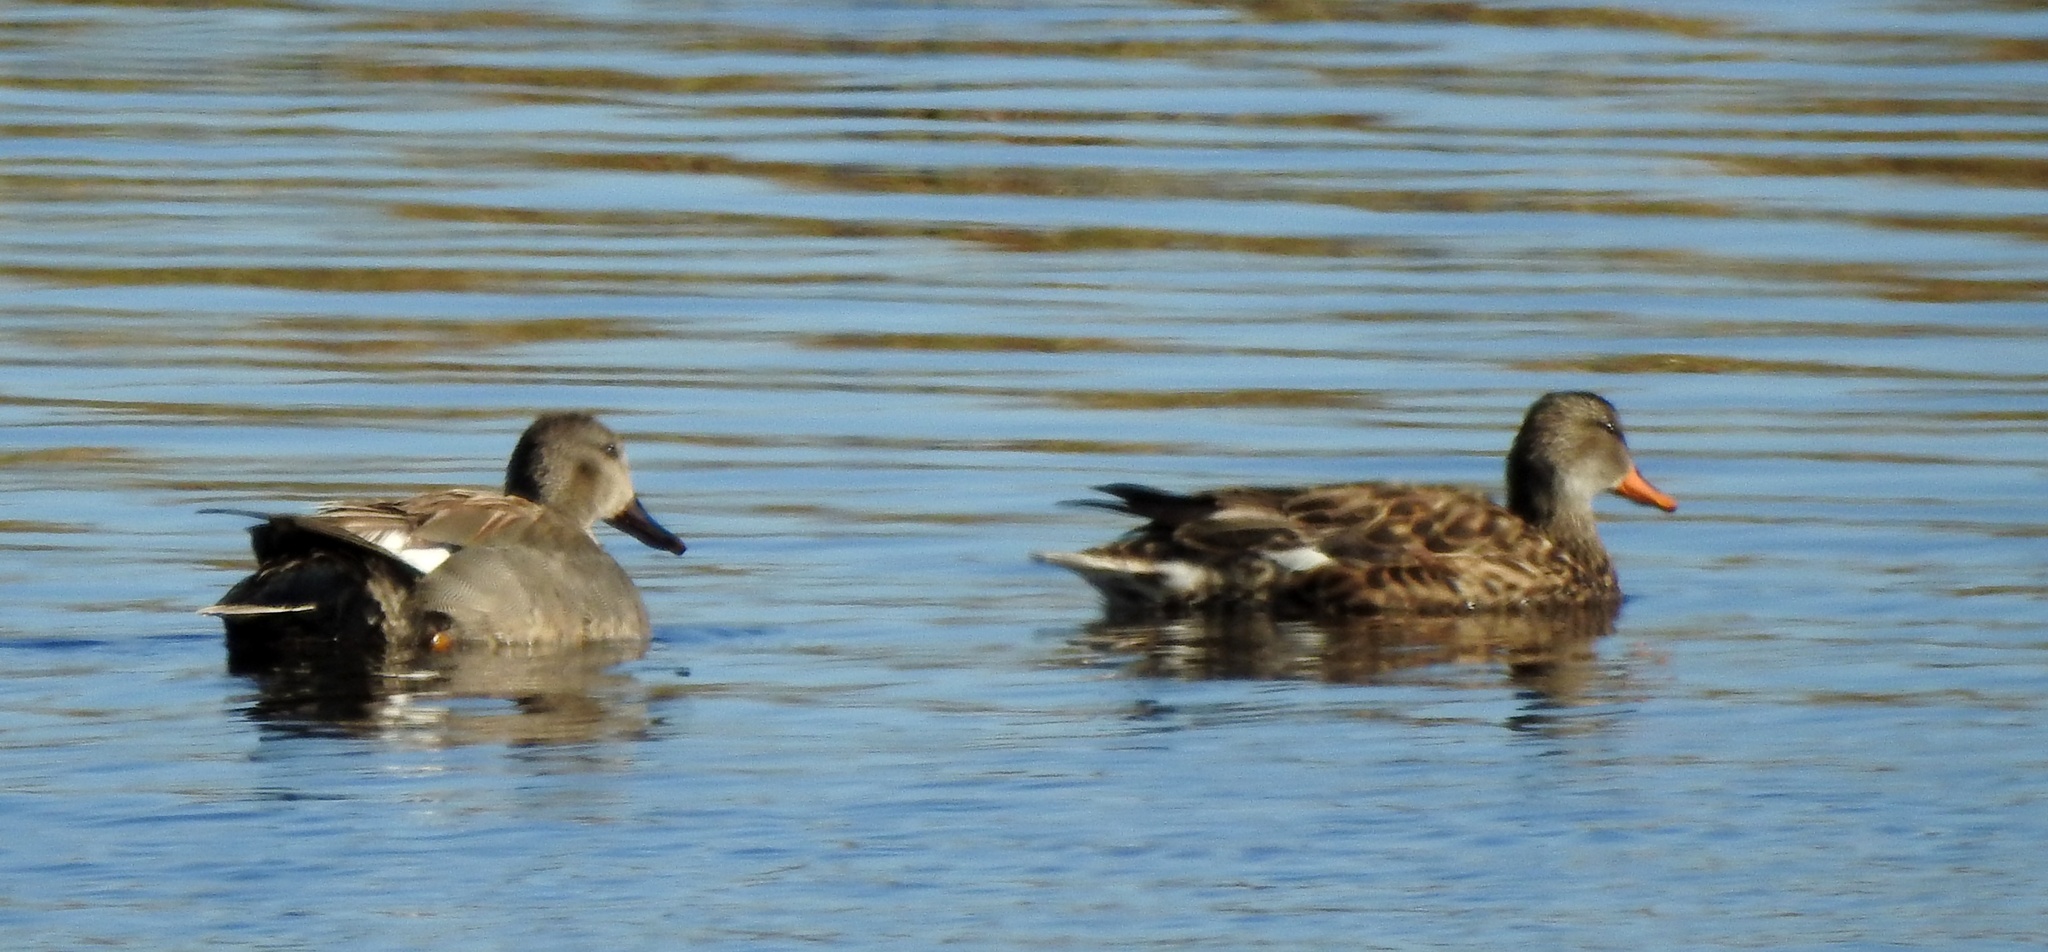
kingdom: Animalia
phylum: Chordata
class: Aves
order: Anseriformes
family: Anatidae
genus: Mareca
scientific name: Mareca strepera
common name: Gadwall
